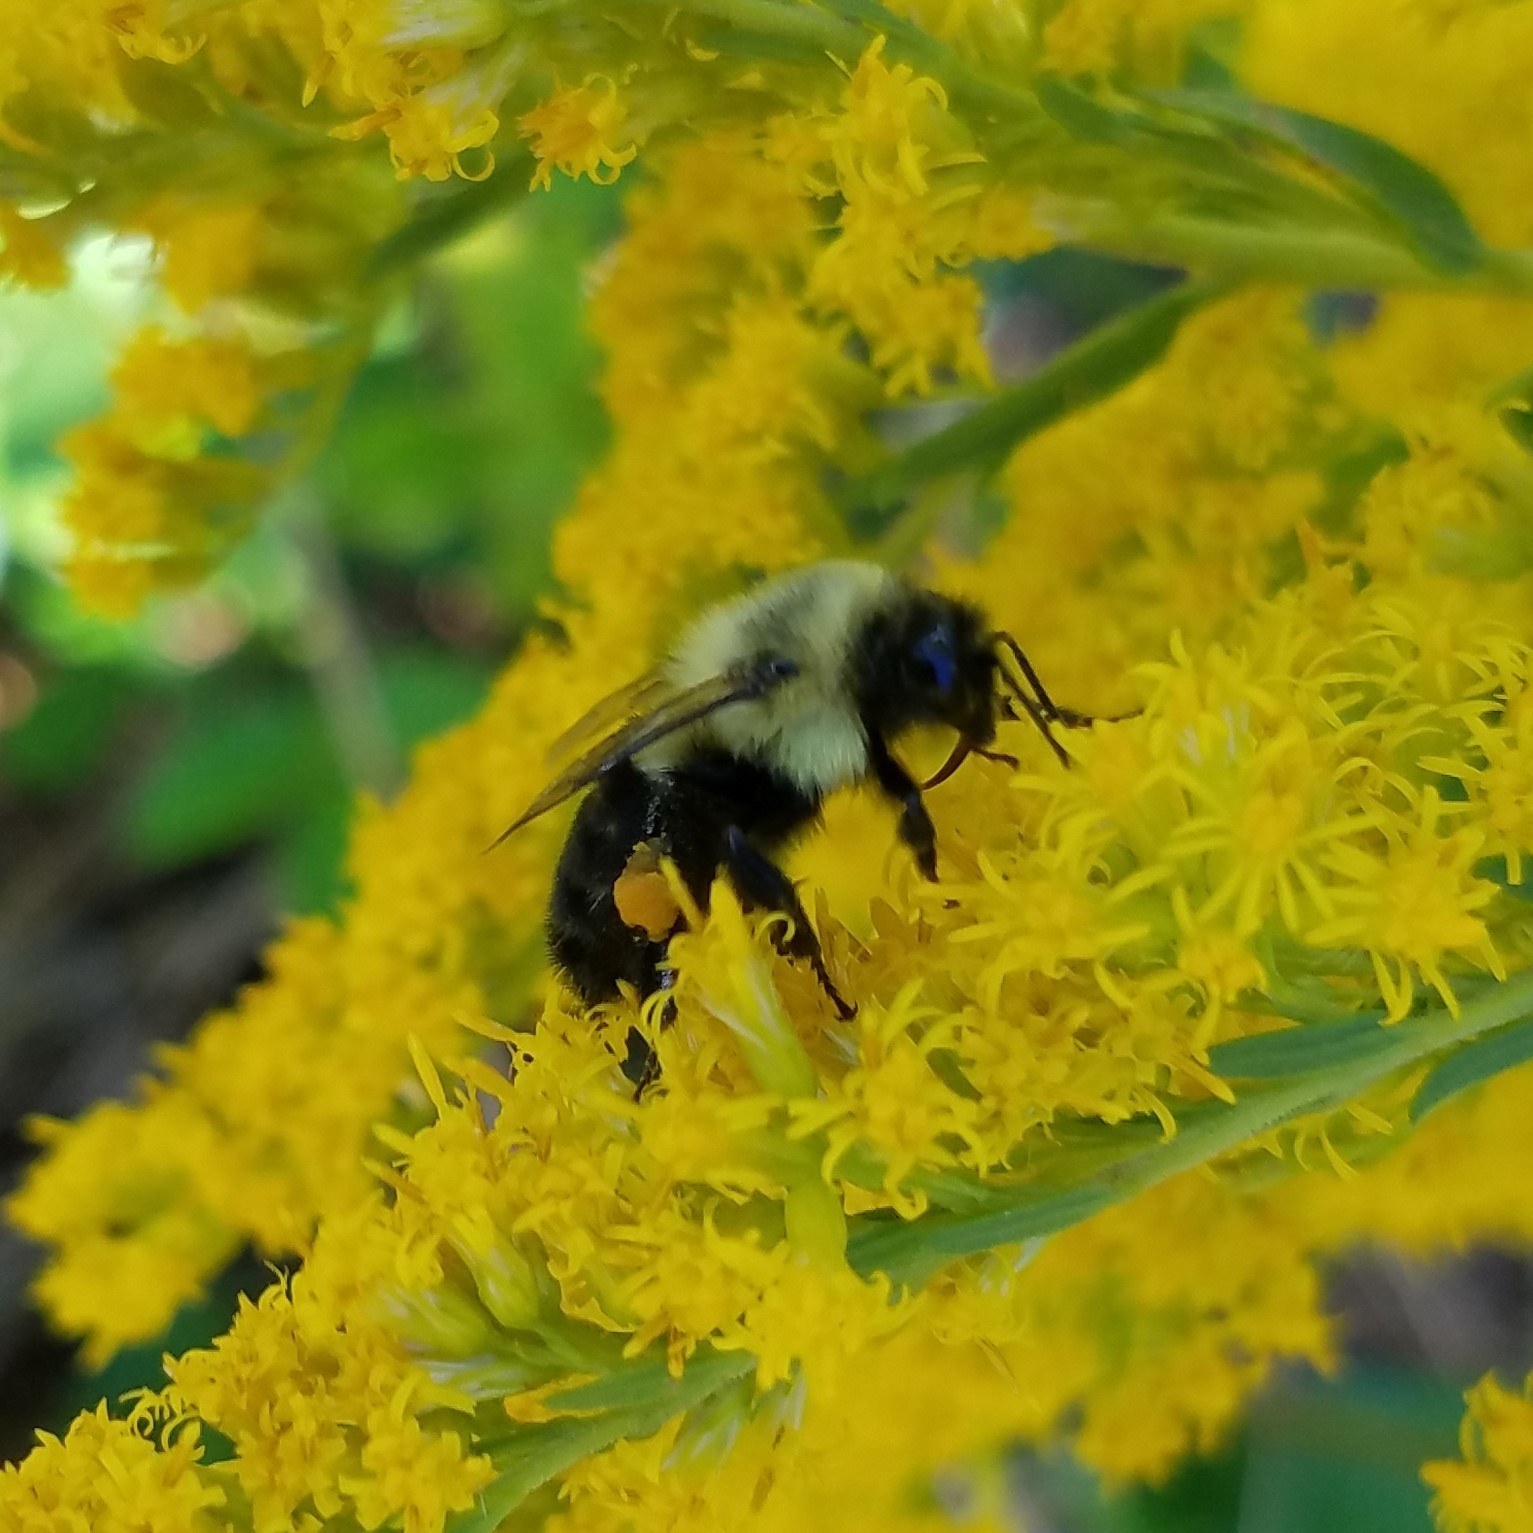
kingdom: Animalia
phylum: Arthropoda
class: Insecta
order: Hymenoptera
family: Apidae
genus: Bombus
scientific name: Bombus impatiens
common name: Common eastern bumble bee
